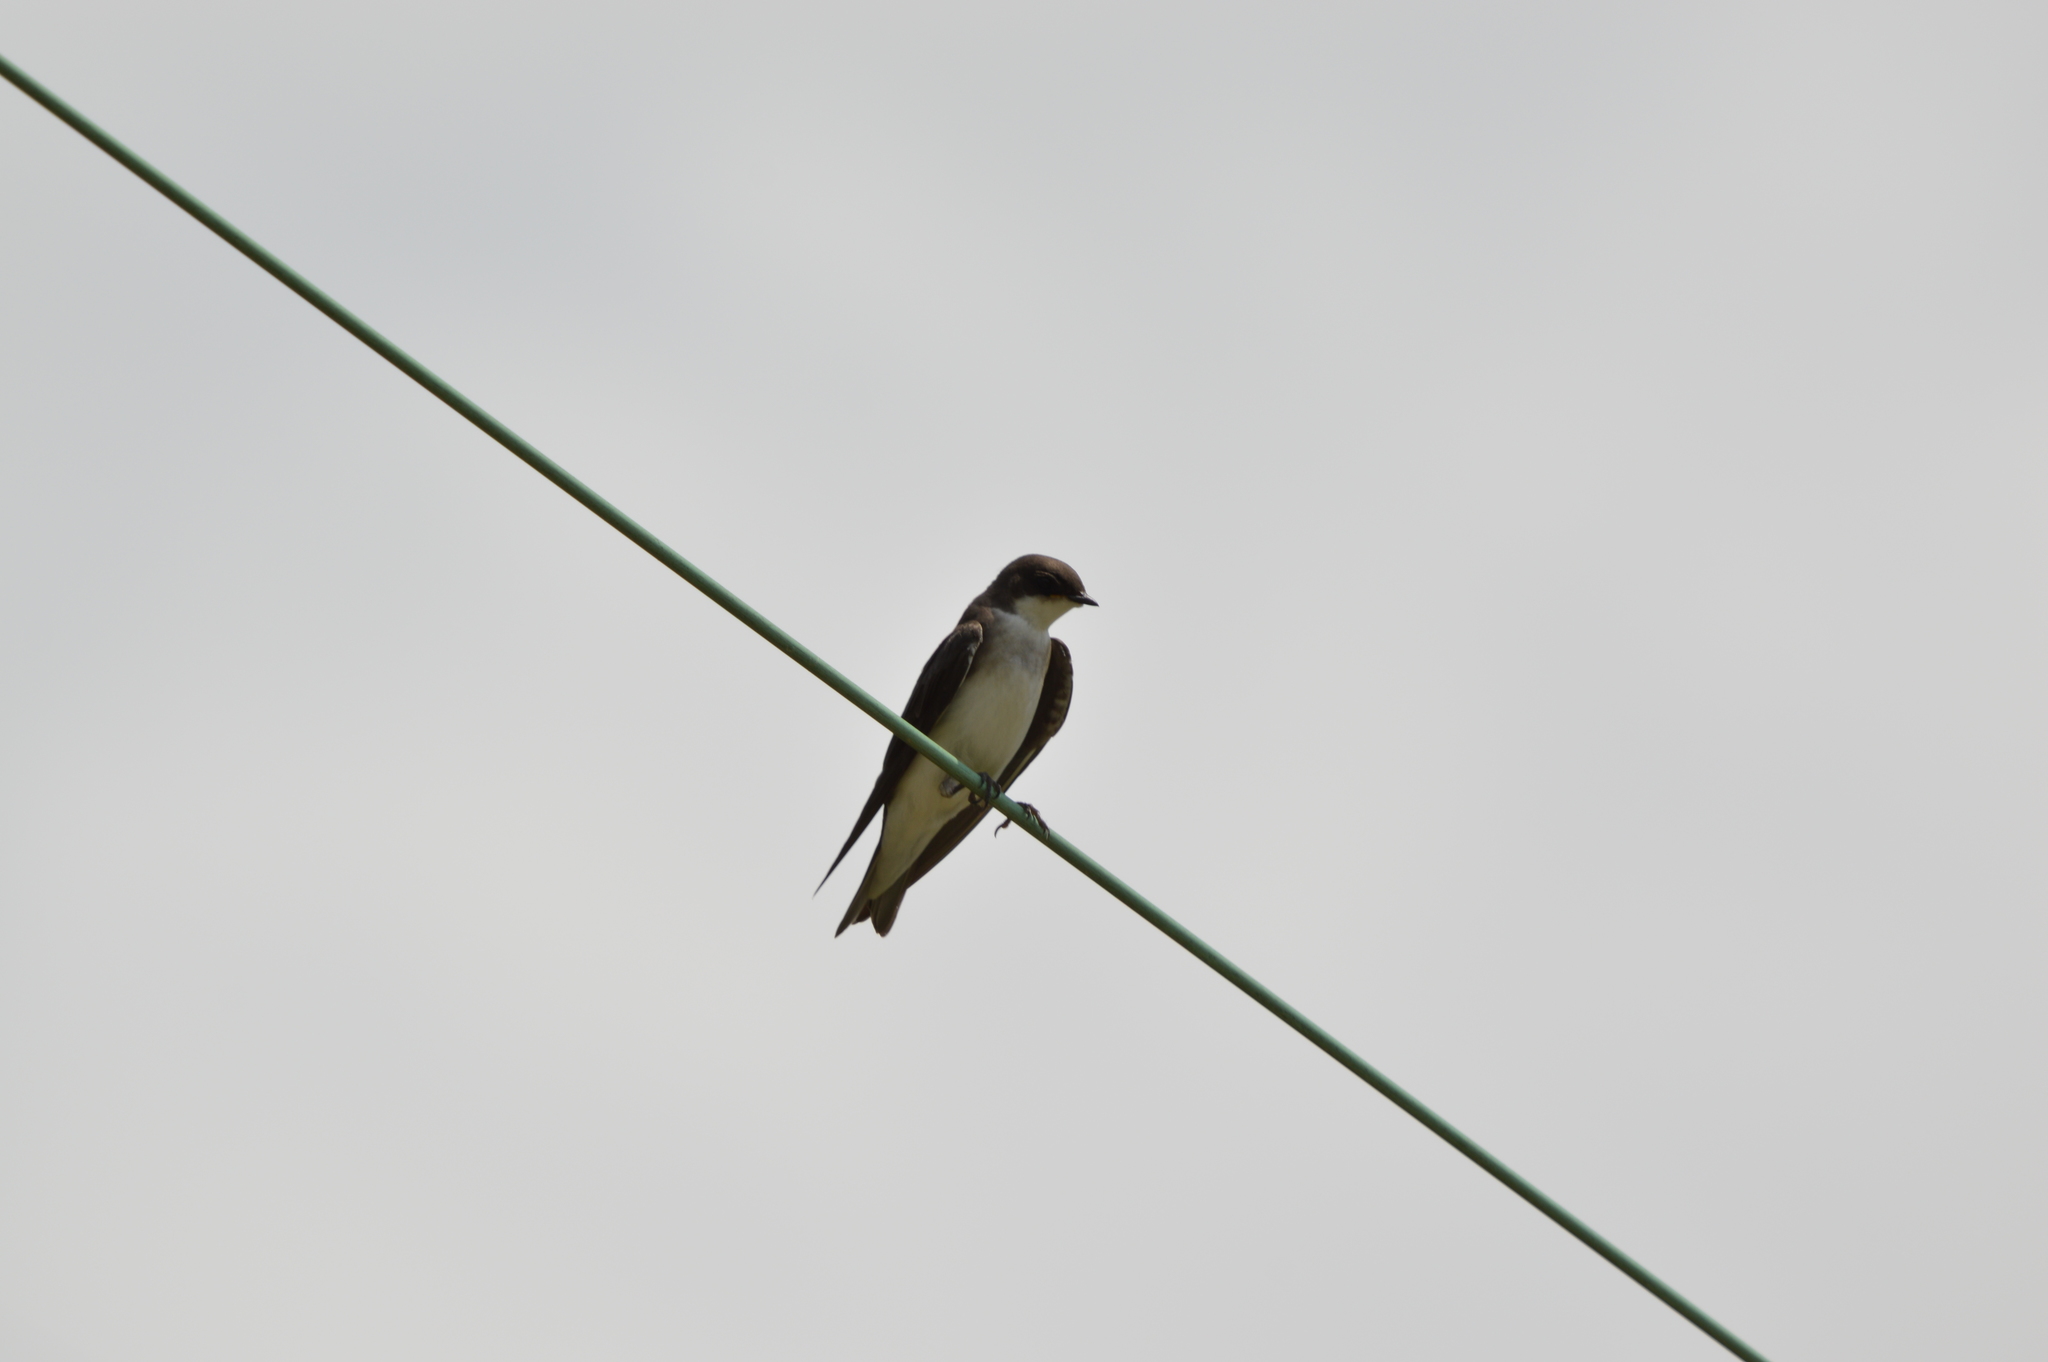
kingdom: Animalia
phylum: Chordata
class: Aves
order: Passeriformes
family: Hirundinidae
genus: Tachycineta
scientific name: Tachycineta bicolor
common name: Tree swallow
